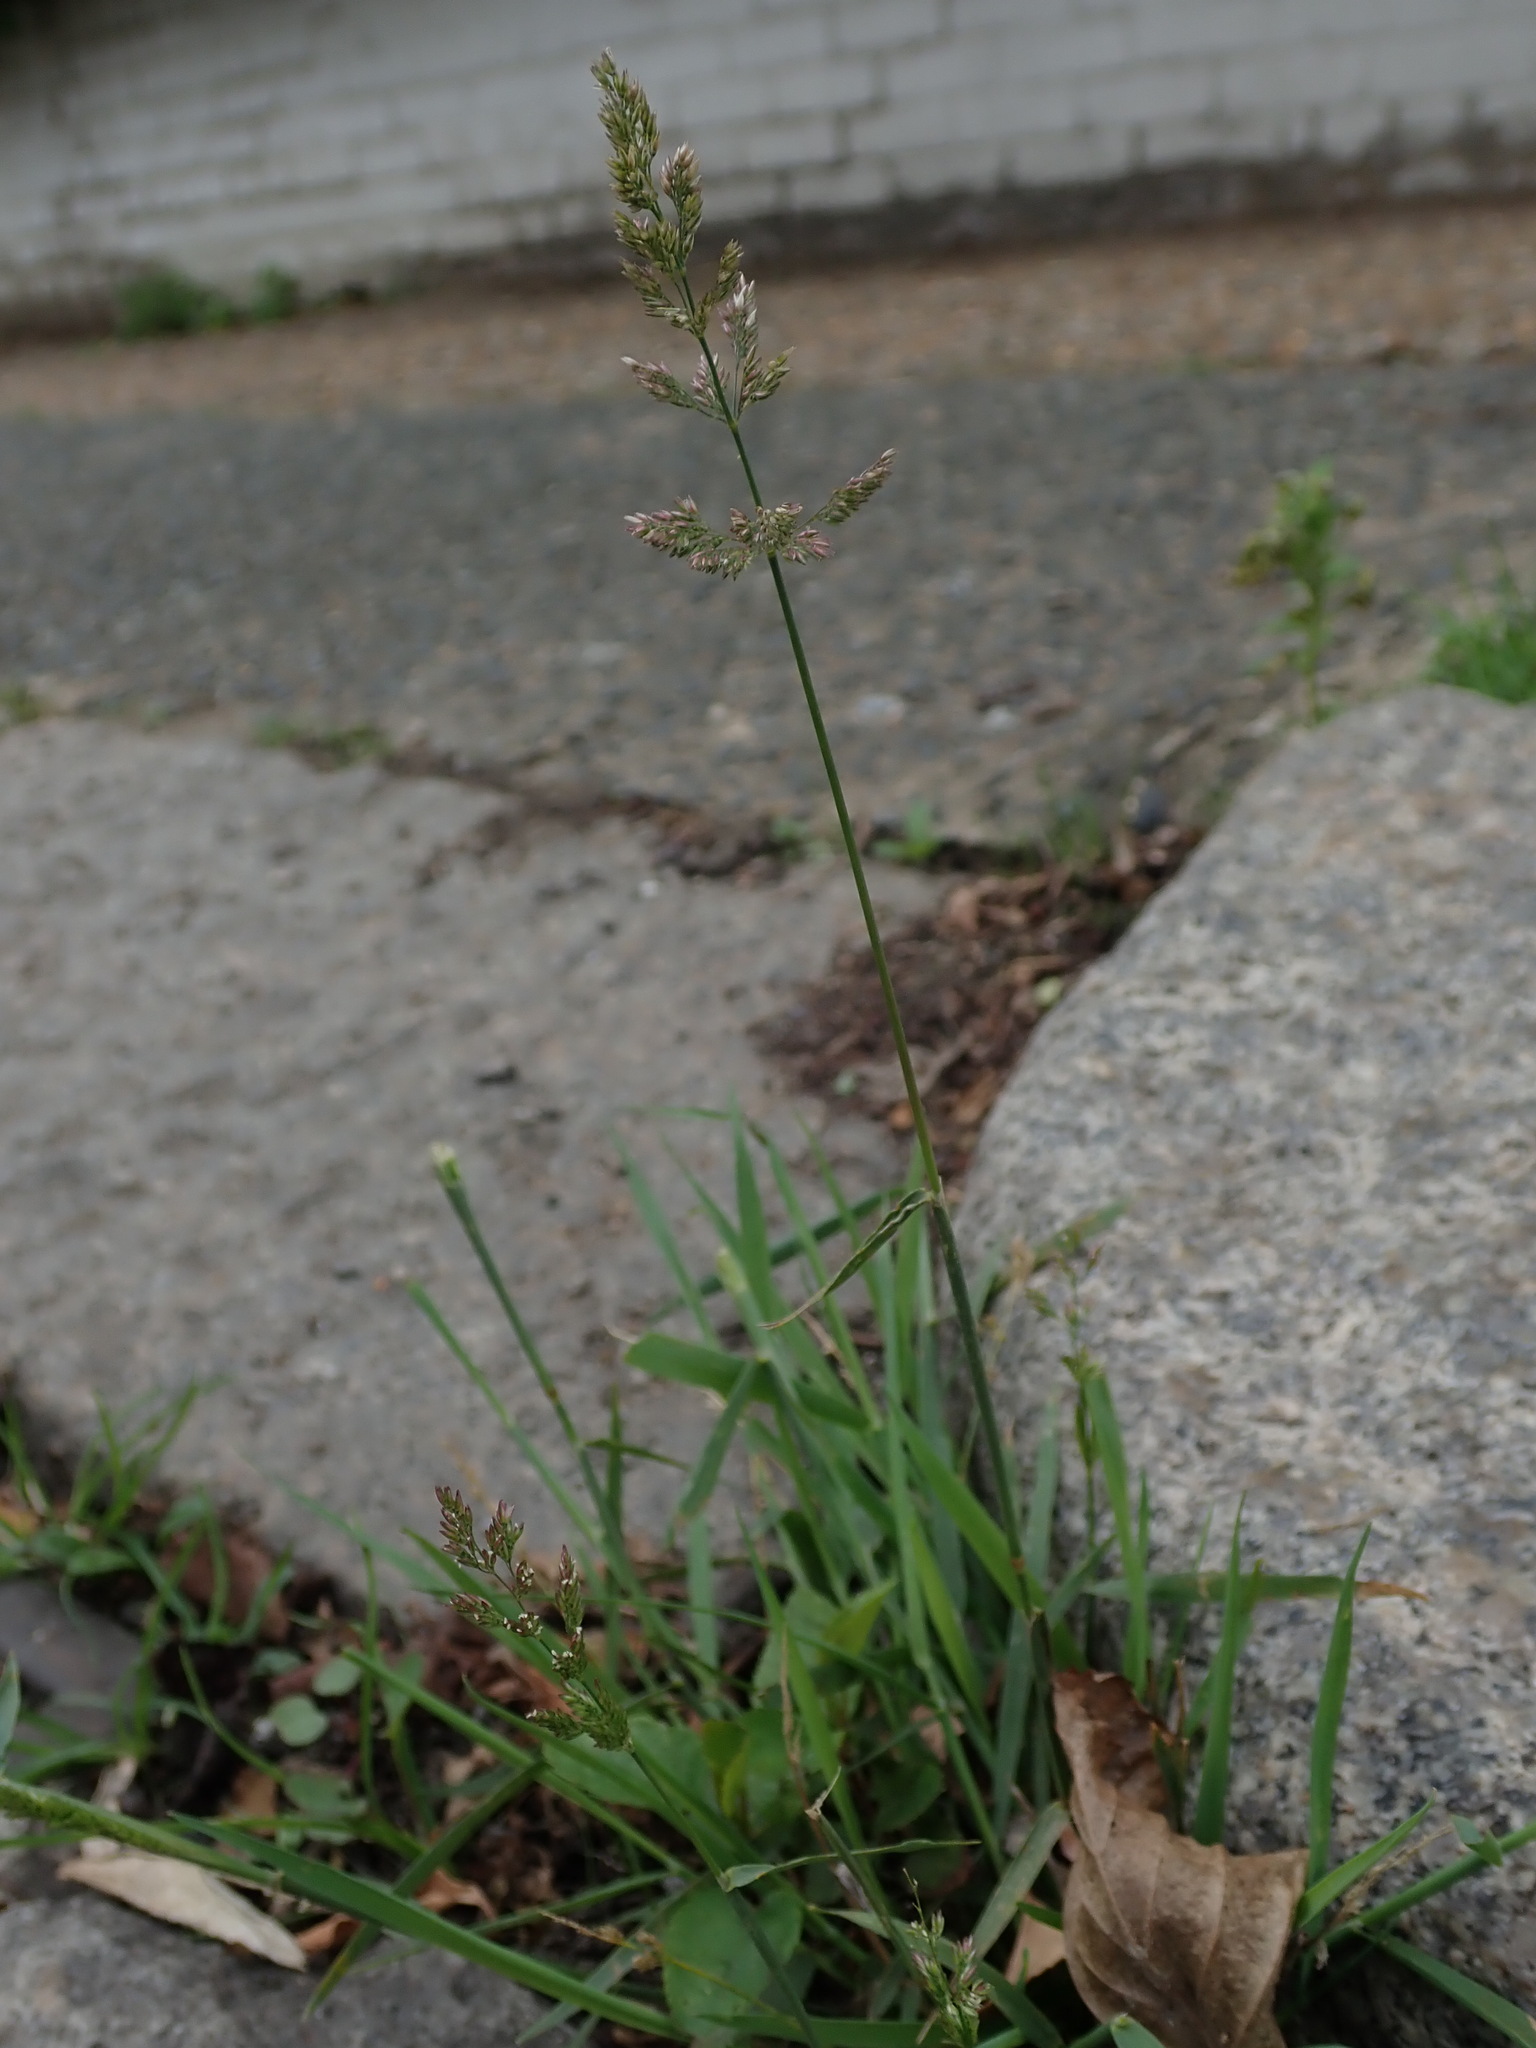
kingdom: Plantae
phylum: Tracheophyta
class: Liliopsida
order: Poales
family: Poaceae
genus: Polypogon
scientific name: Polypogon viridis
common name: Water bent
